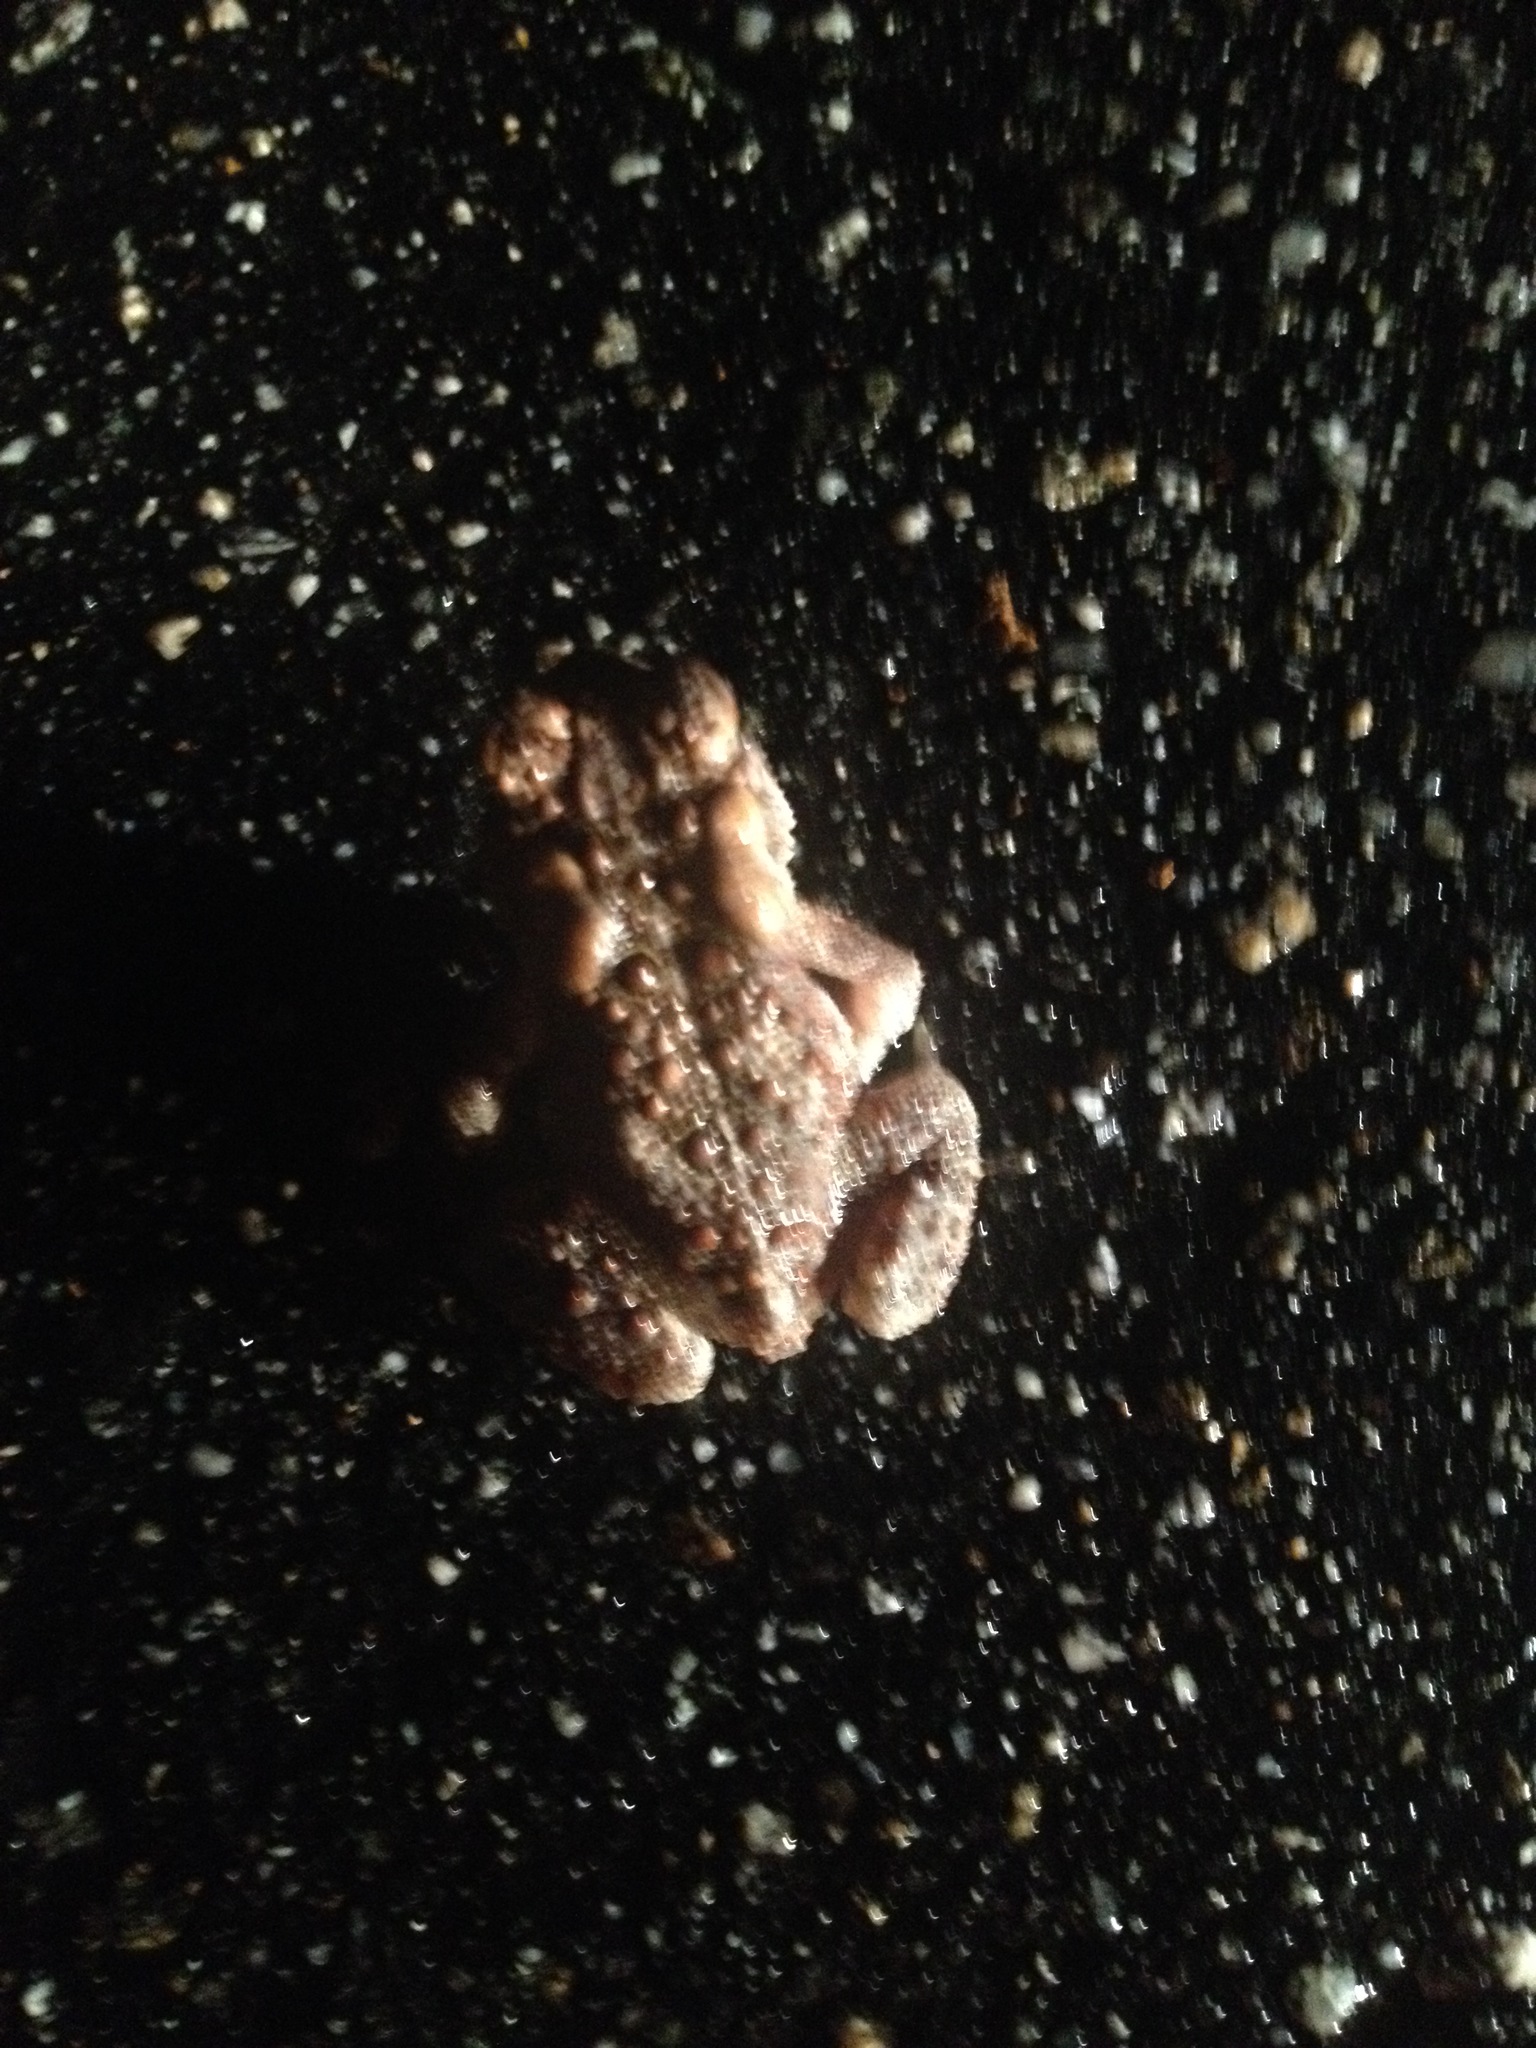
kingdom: Animalia
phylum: Chordata
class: Amphibia
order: Anura
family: Bufonidae
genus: Anaxyrus
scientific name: Anaxyrus americanus
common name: American toad
